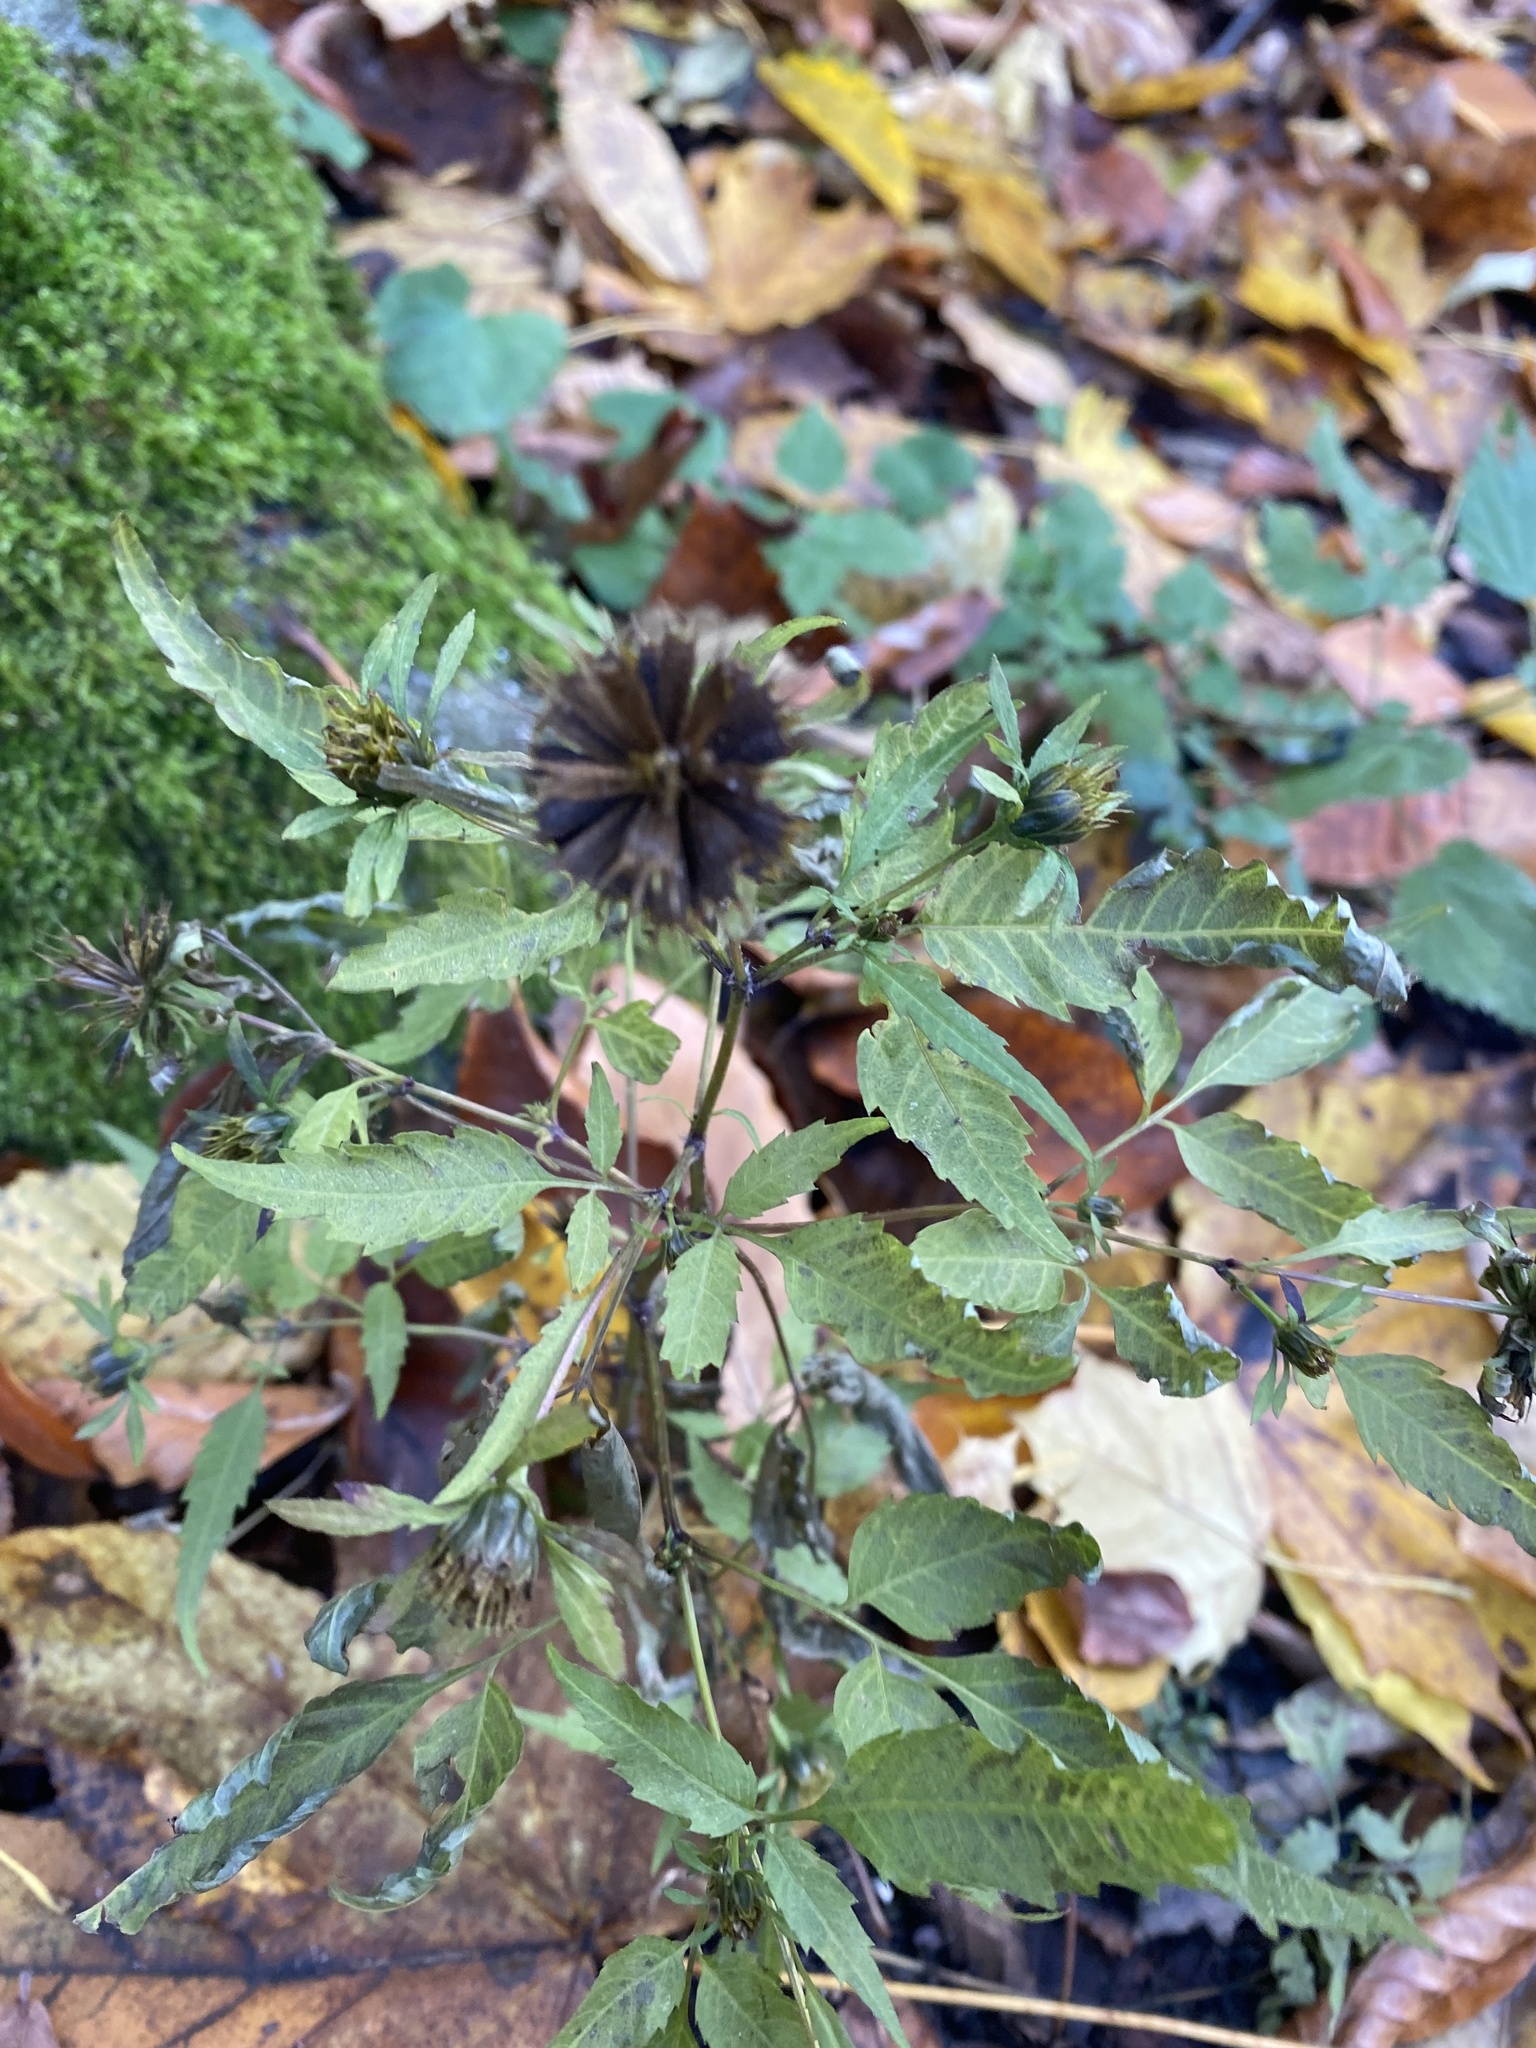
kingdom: Plantae
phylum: Tracheophyta
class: Magnoliopsida
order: Asterales
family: Asteraceae
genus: Bidens
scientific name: Bidens frondosa
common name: Beggarticks
